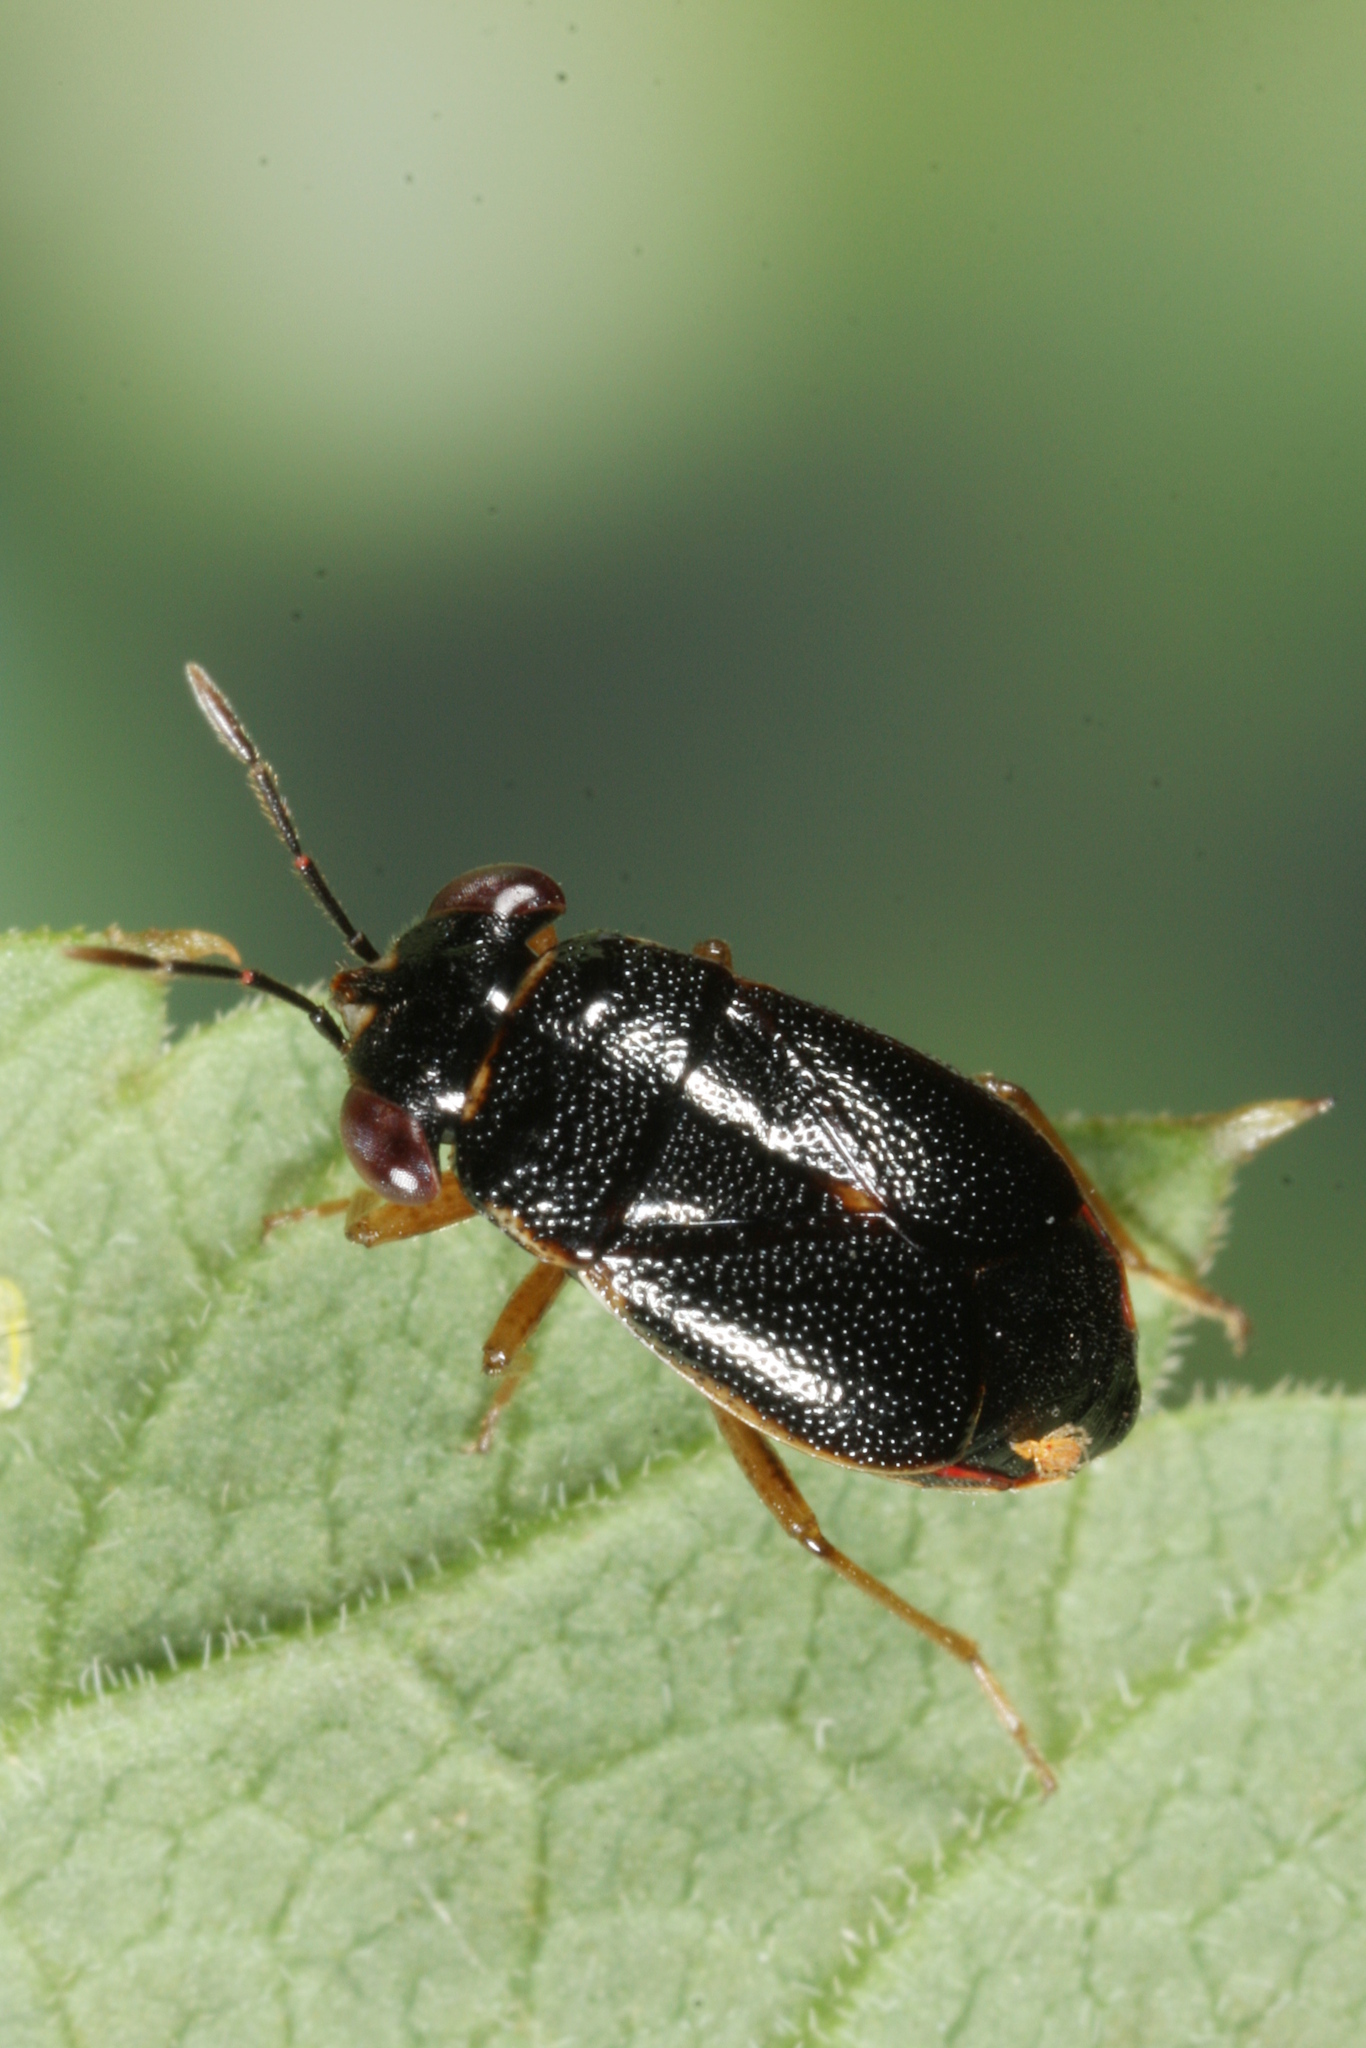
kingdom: Animalia
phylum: Arthropoda
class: Insecta
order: Hemiptera
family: Geocoridae
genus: Geocoris
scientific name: Geocoris dispar
